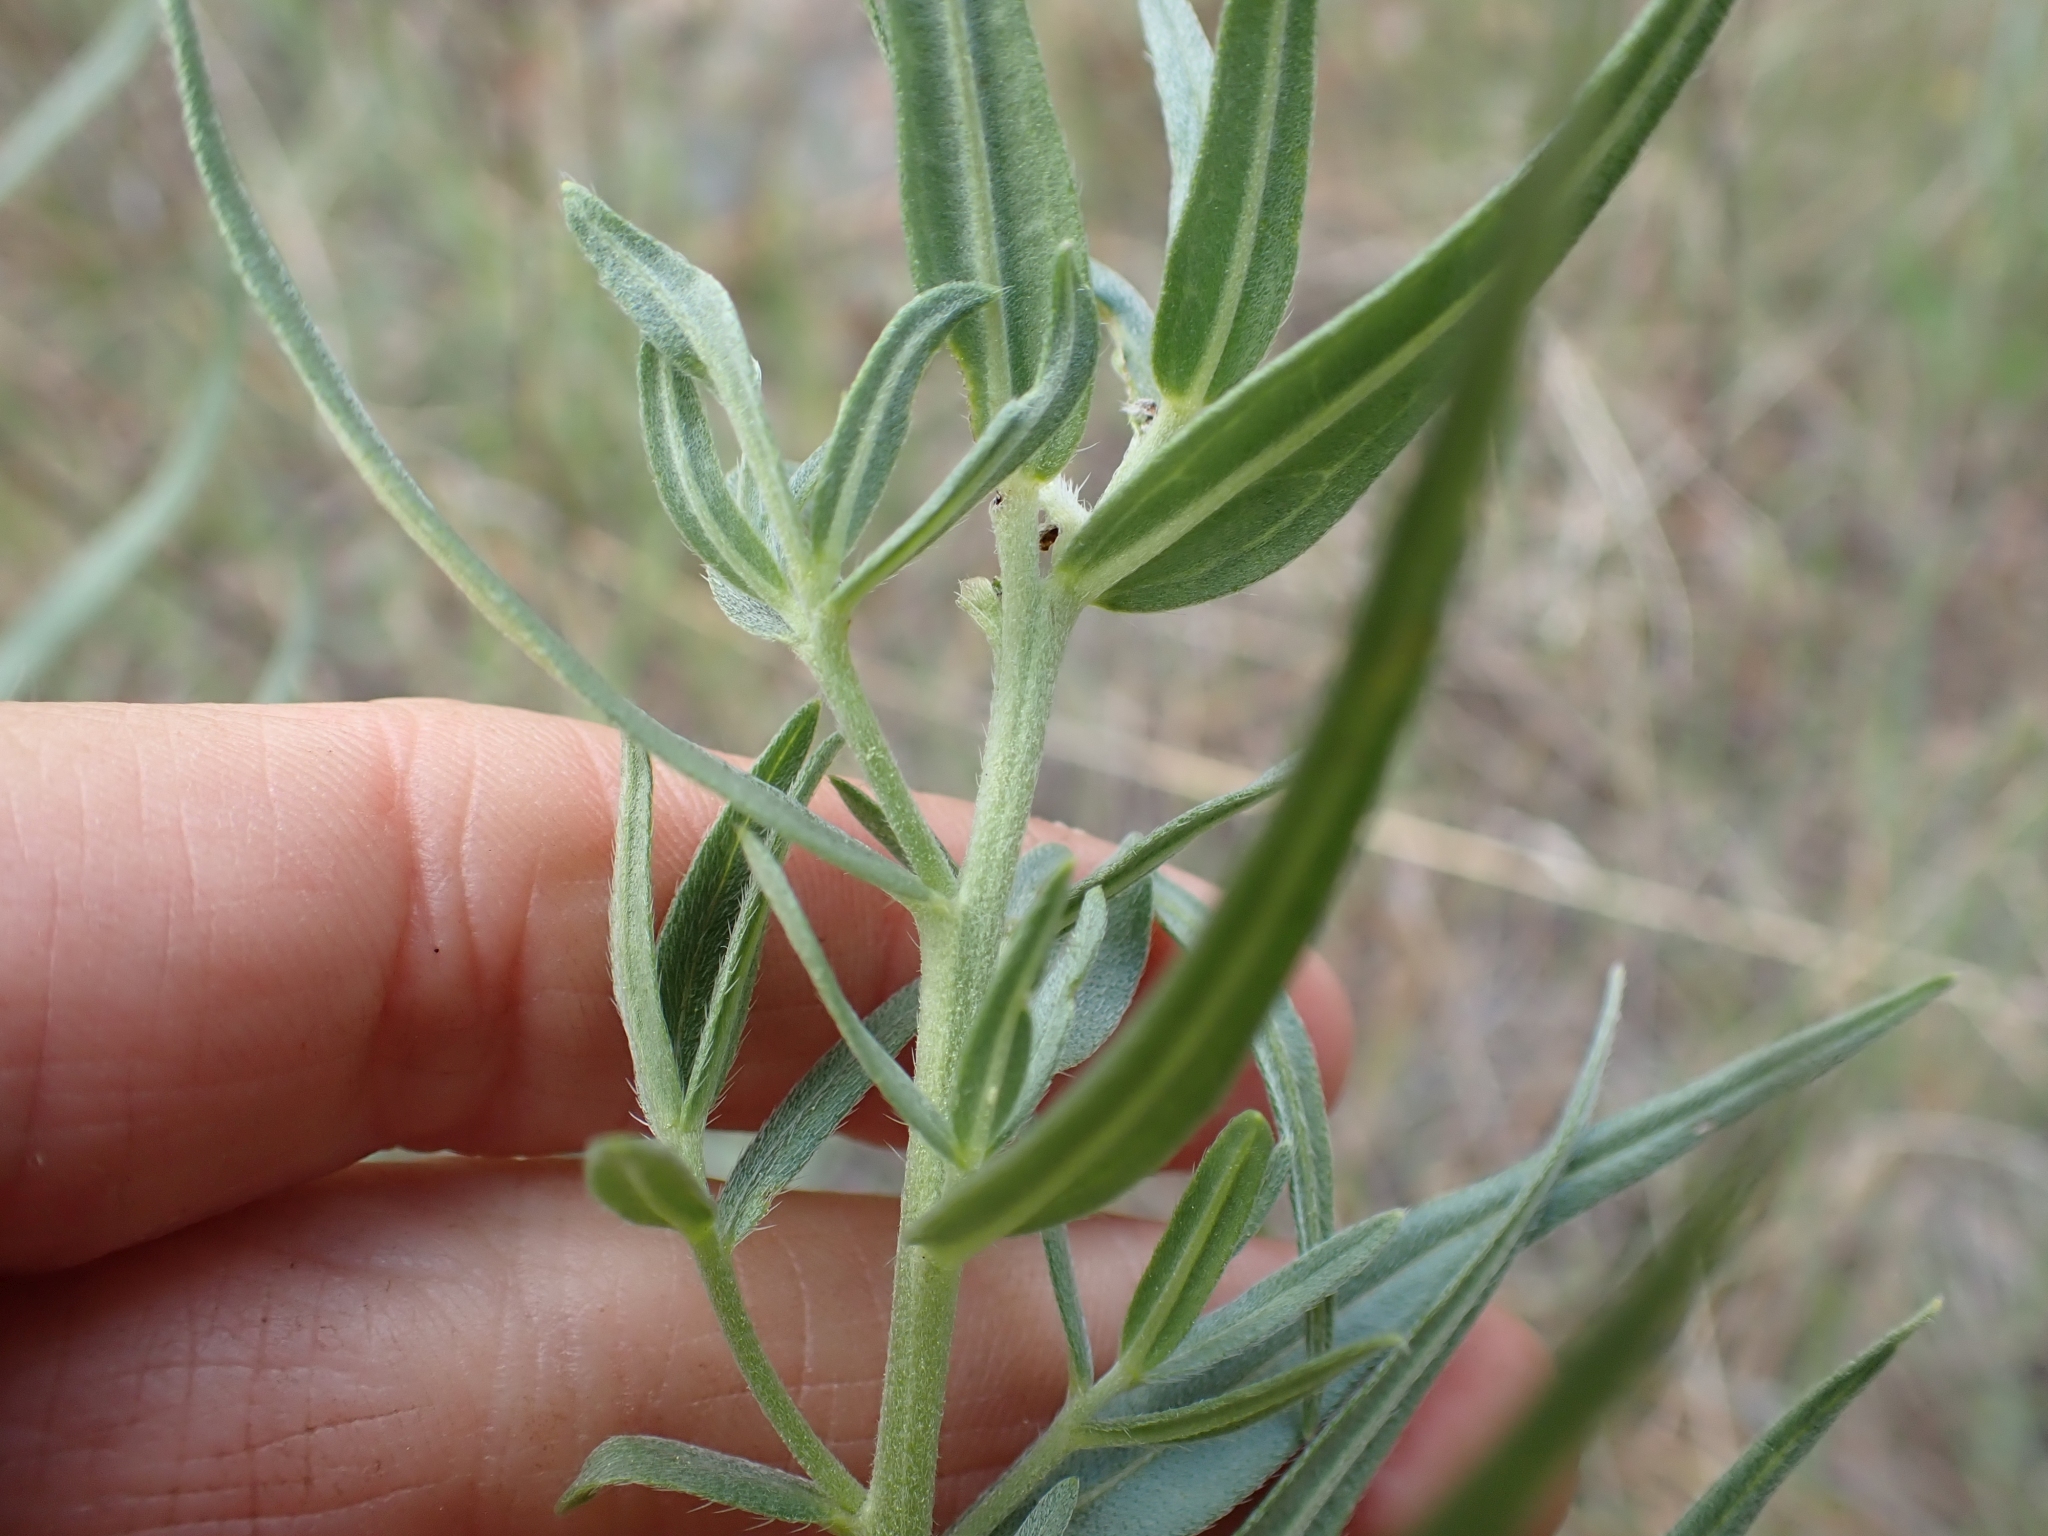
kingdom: Plantae
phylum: Tracheophyta
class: Magnoliopsida
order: Boraginales
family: Boraginaceae
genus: Lithospermum
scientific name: Lithospermum ruderale
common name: Western gromwell
